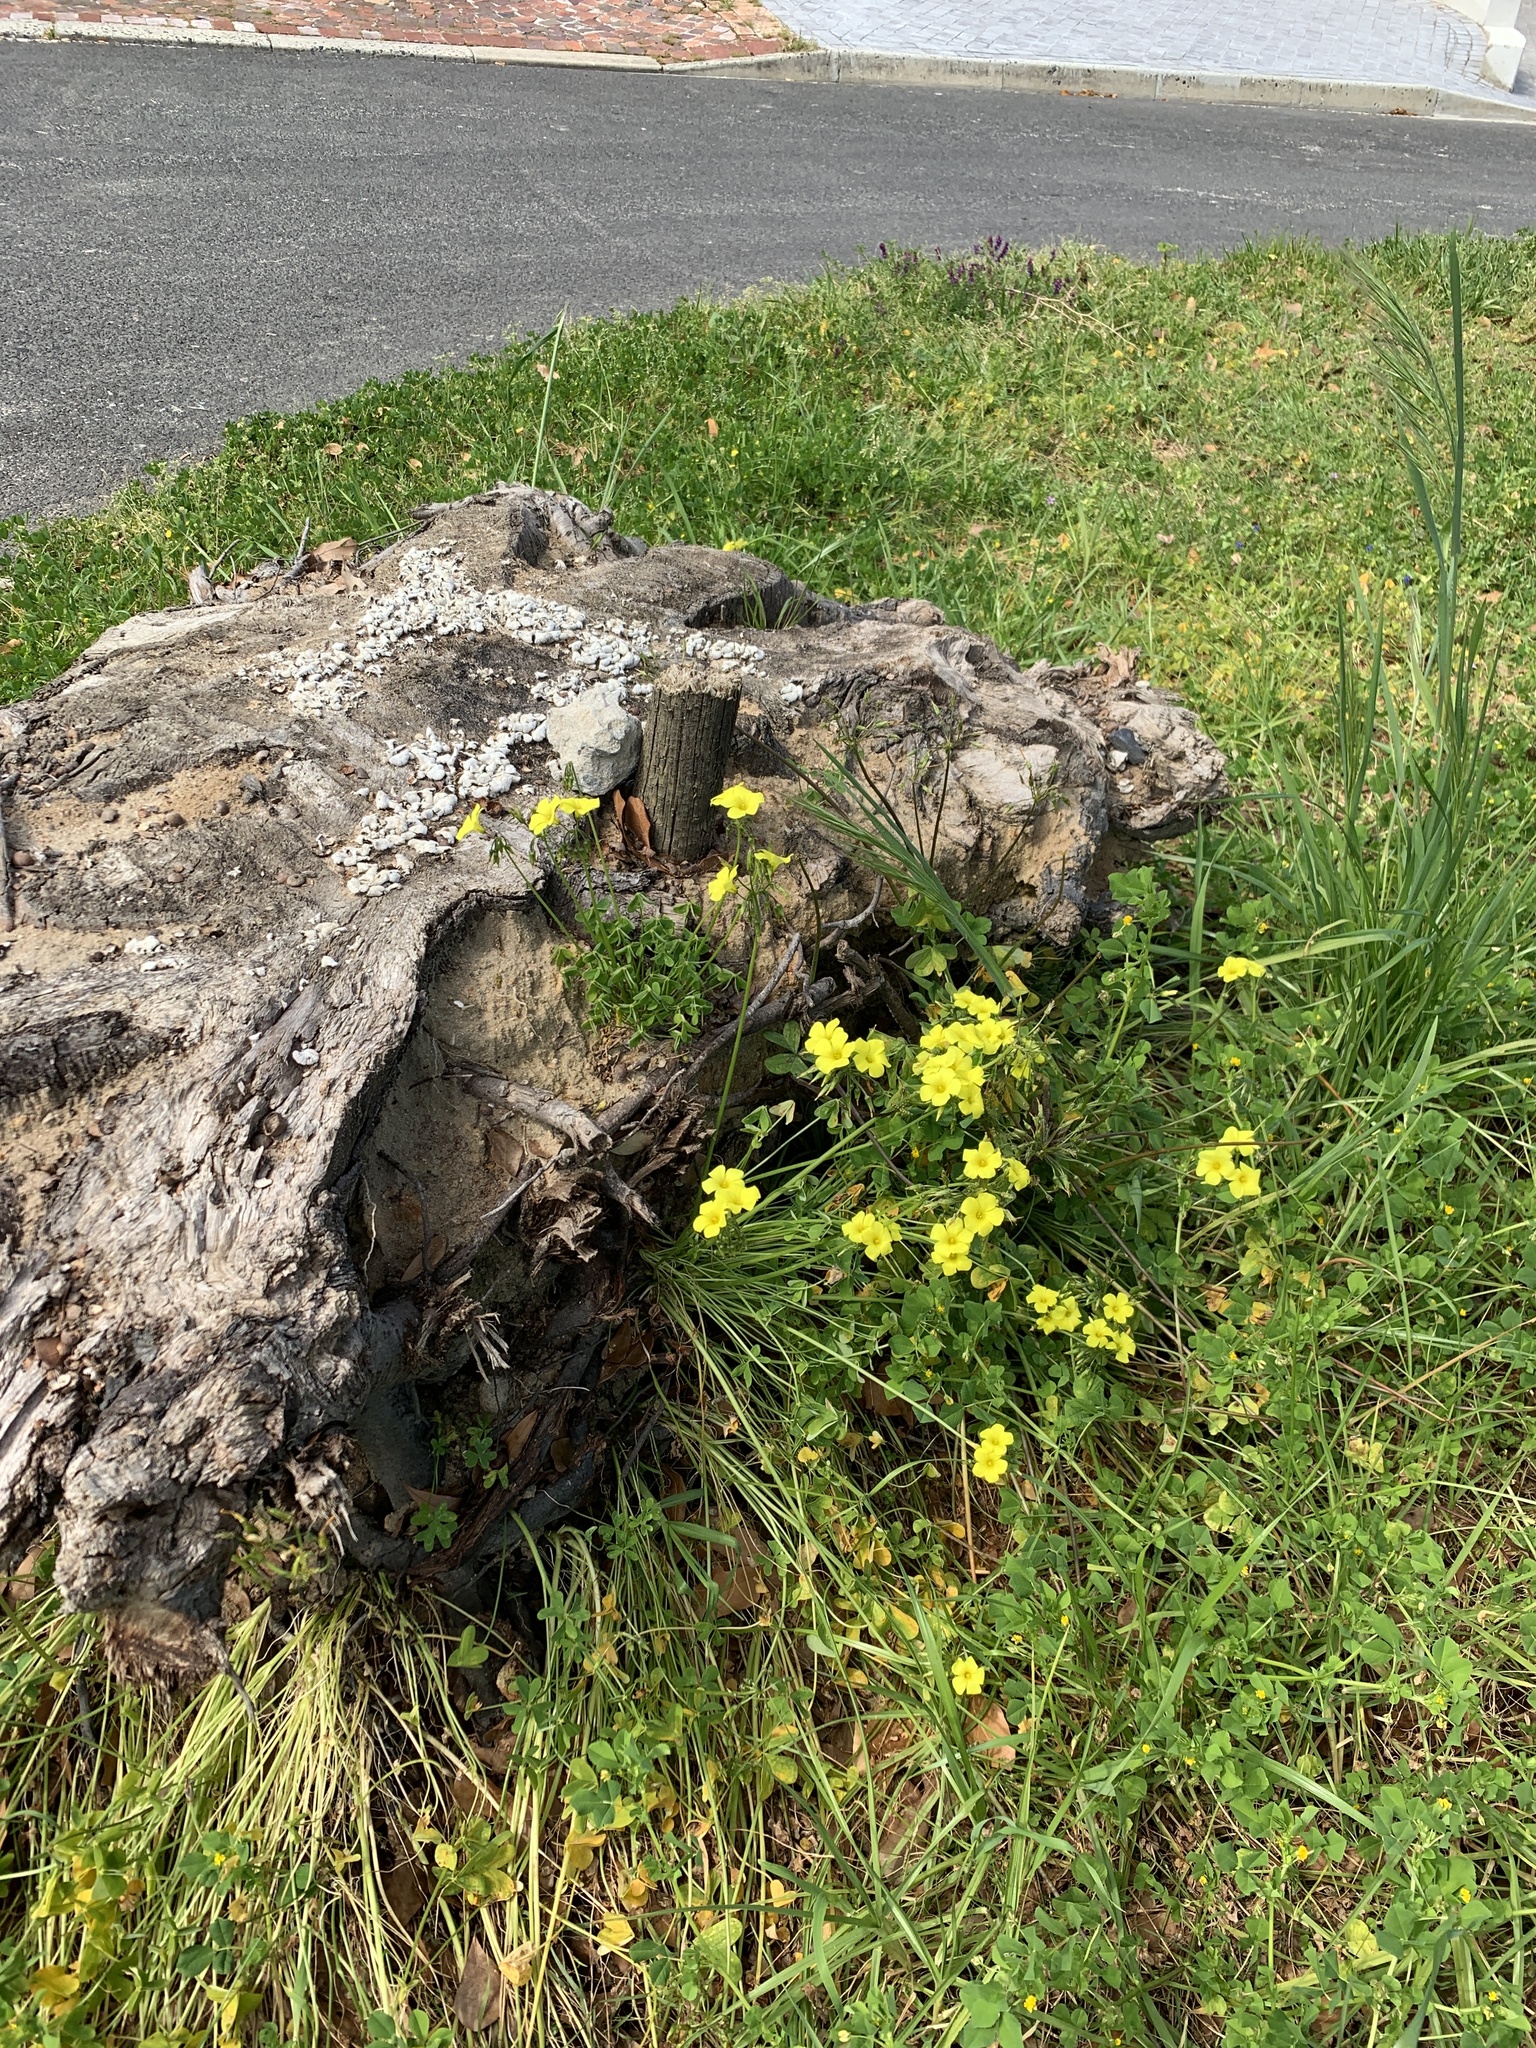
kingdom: Plantae
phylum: Tracheophyta
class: Magnoliopsida
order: Oxalidales
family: Oxalidaceae
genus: Oxalis
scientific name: Oxalis pes-caprae
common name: Bermuda-buttercup
